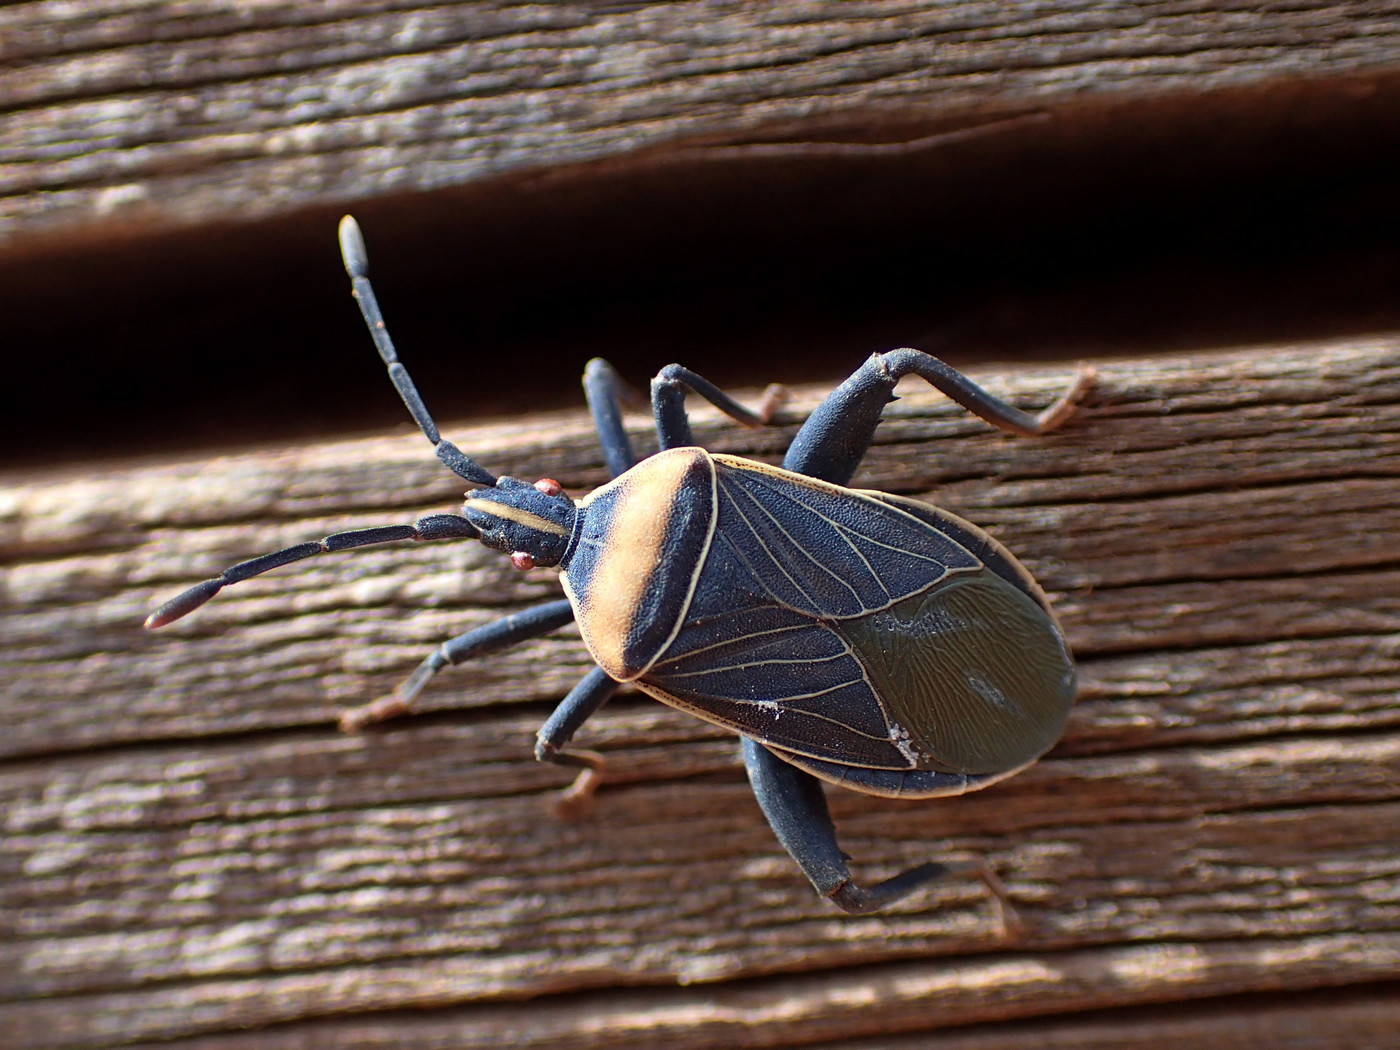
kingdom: Animalia
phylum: Arthropoda
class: Insecta
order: Hemiptera
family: Coreidae
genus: Chelinidea
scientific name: Chelinidea vittiger
